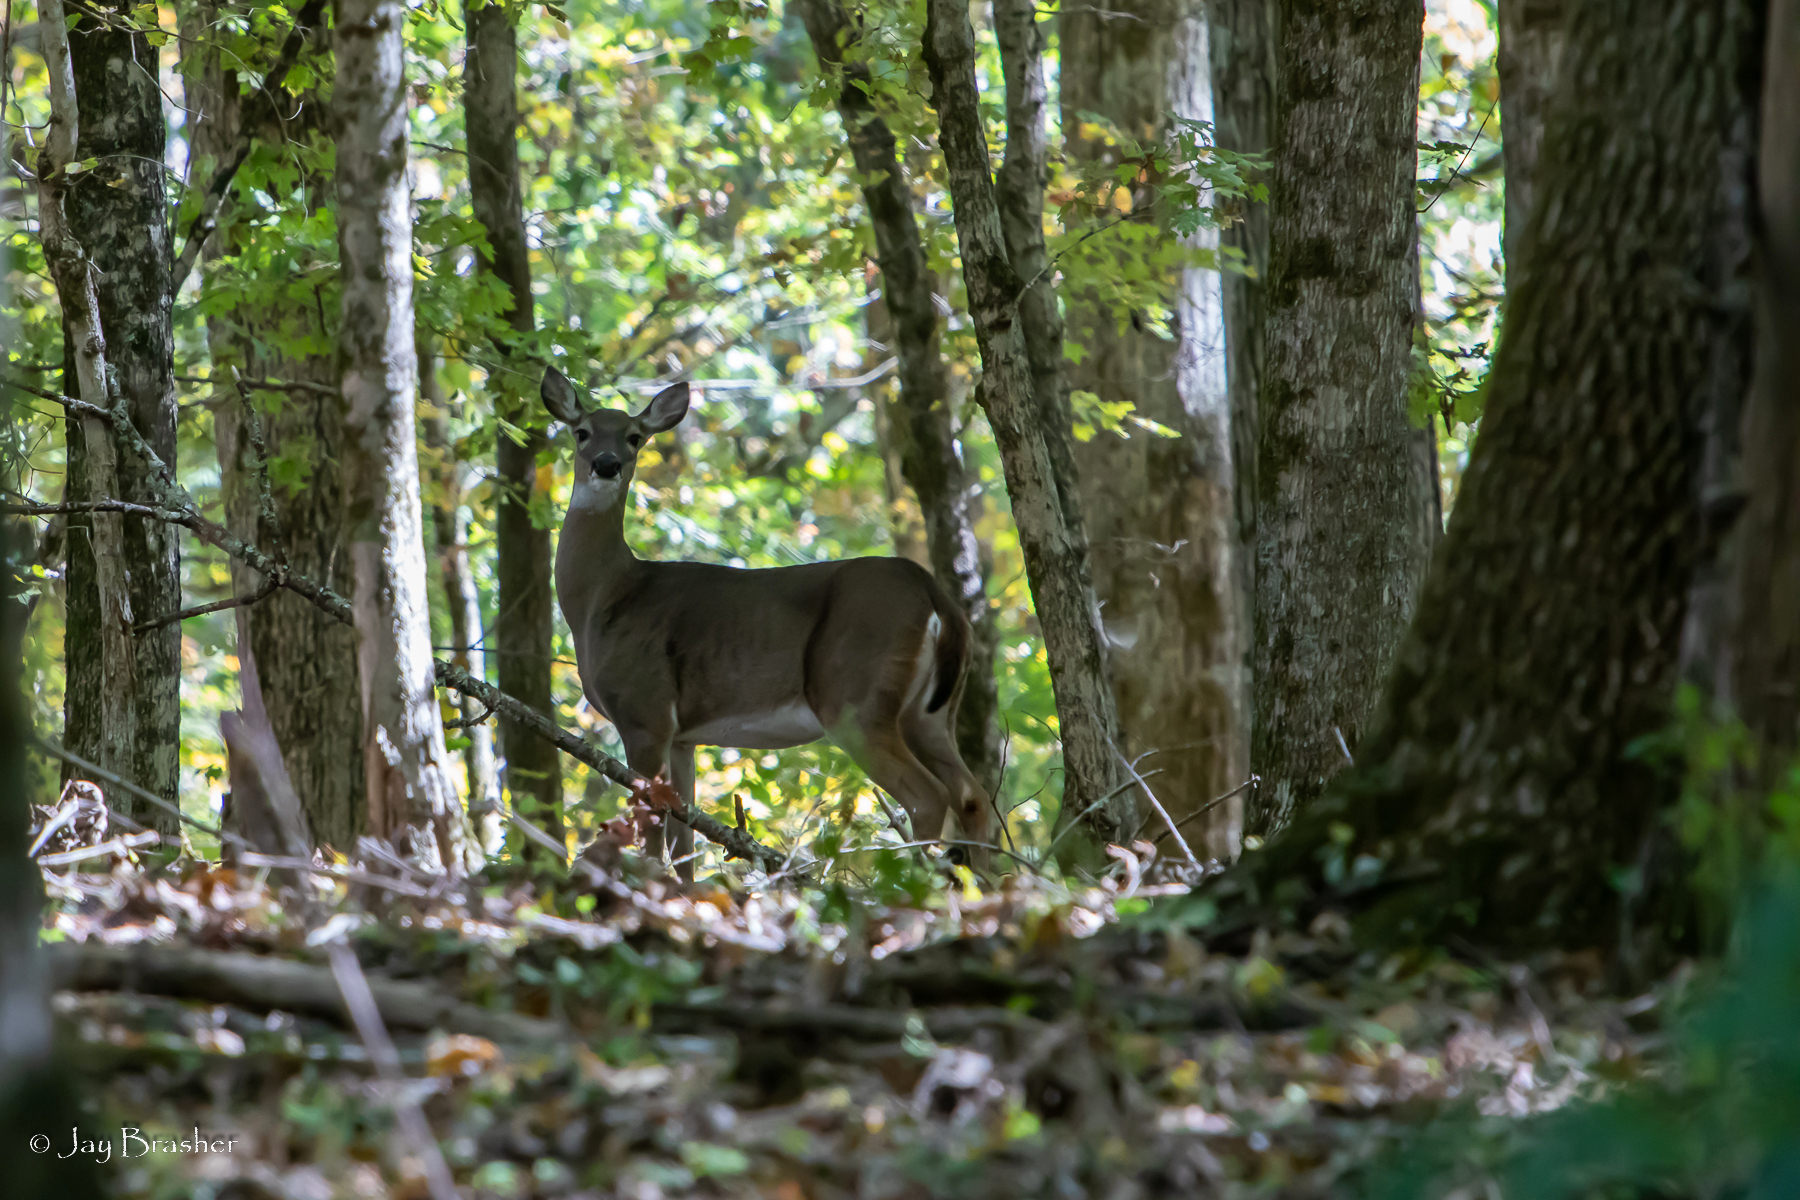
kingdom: Animalia
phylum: Chordata
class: Mammalia
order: Artiodactyla
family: Cervidae
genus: Odocoileus
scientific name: Odocoileus virginianus
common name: White-tailed deer
